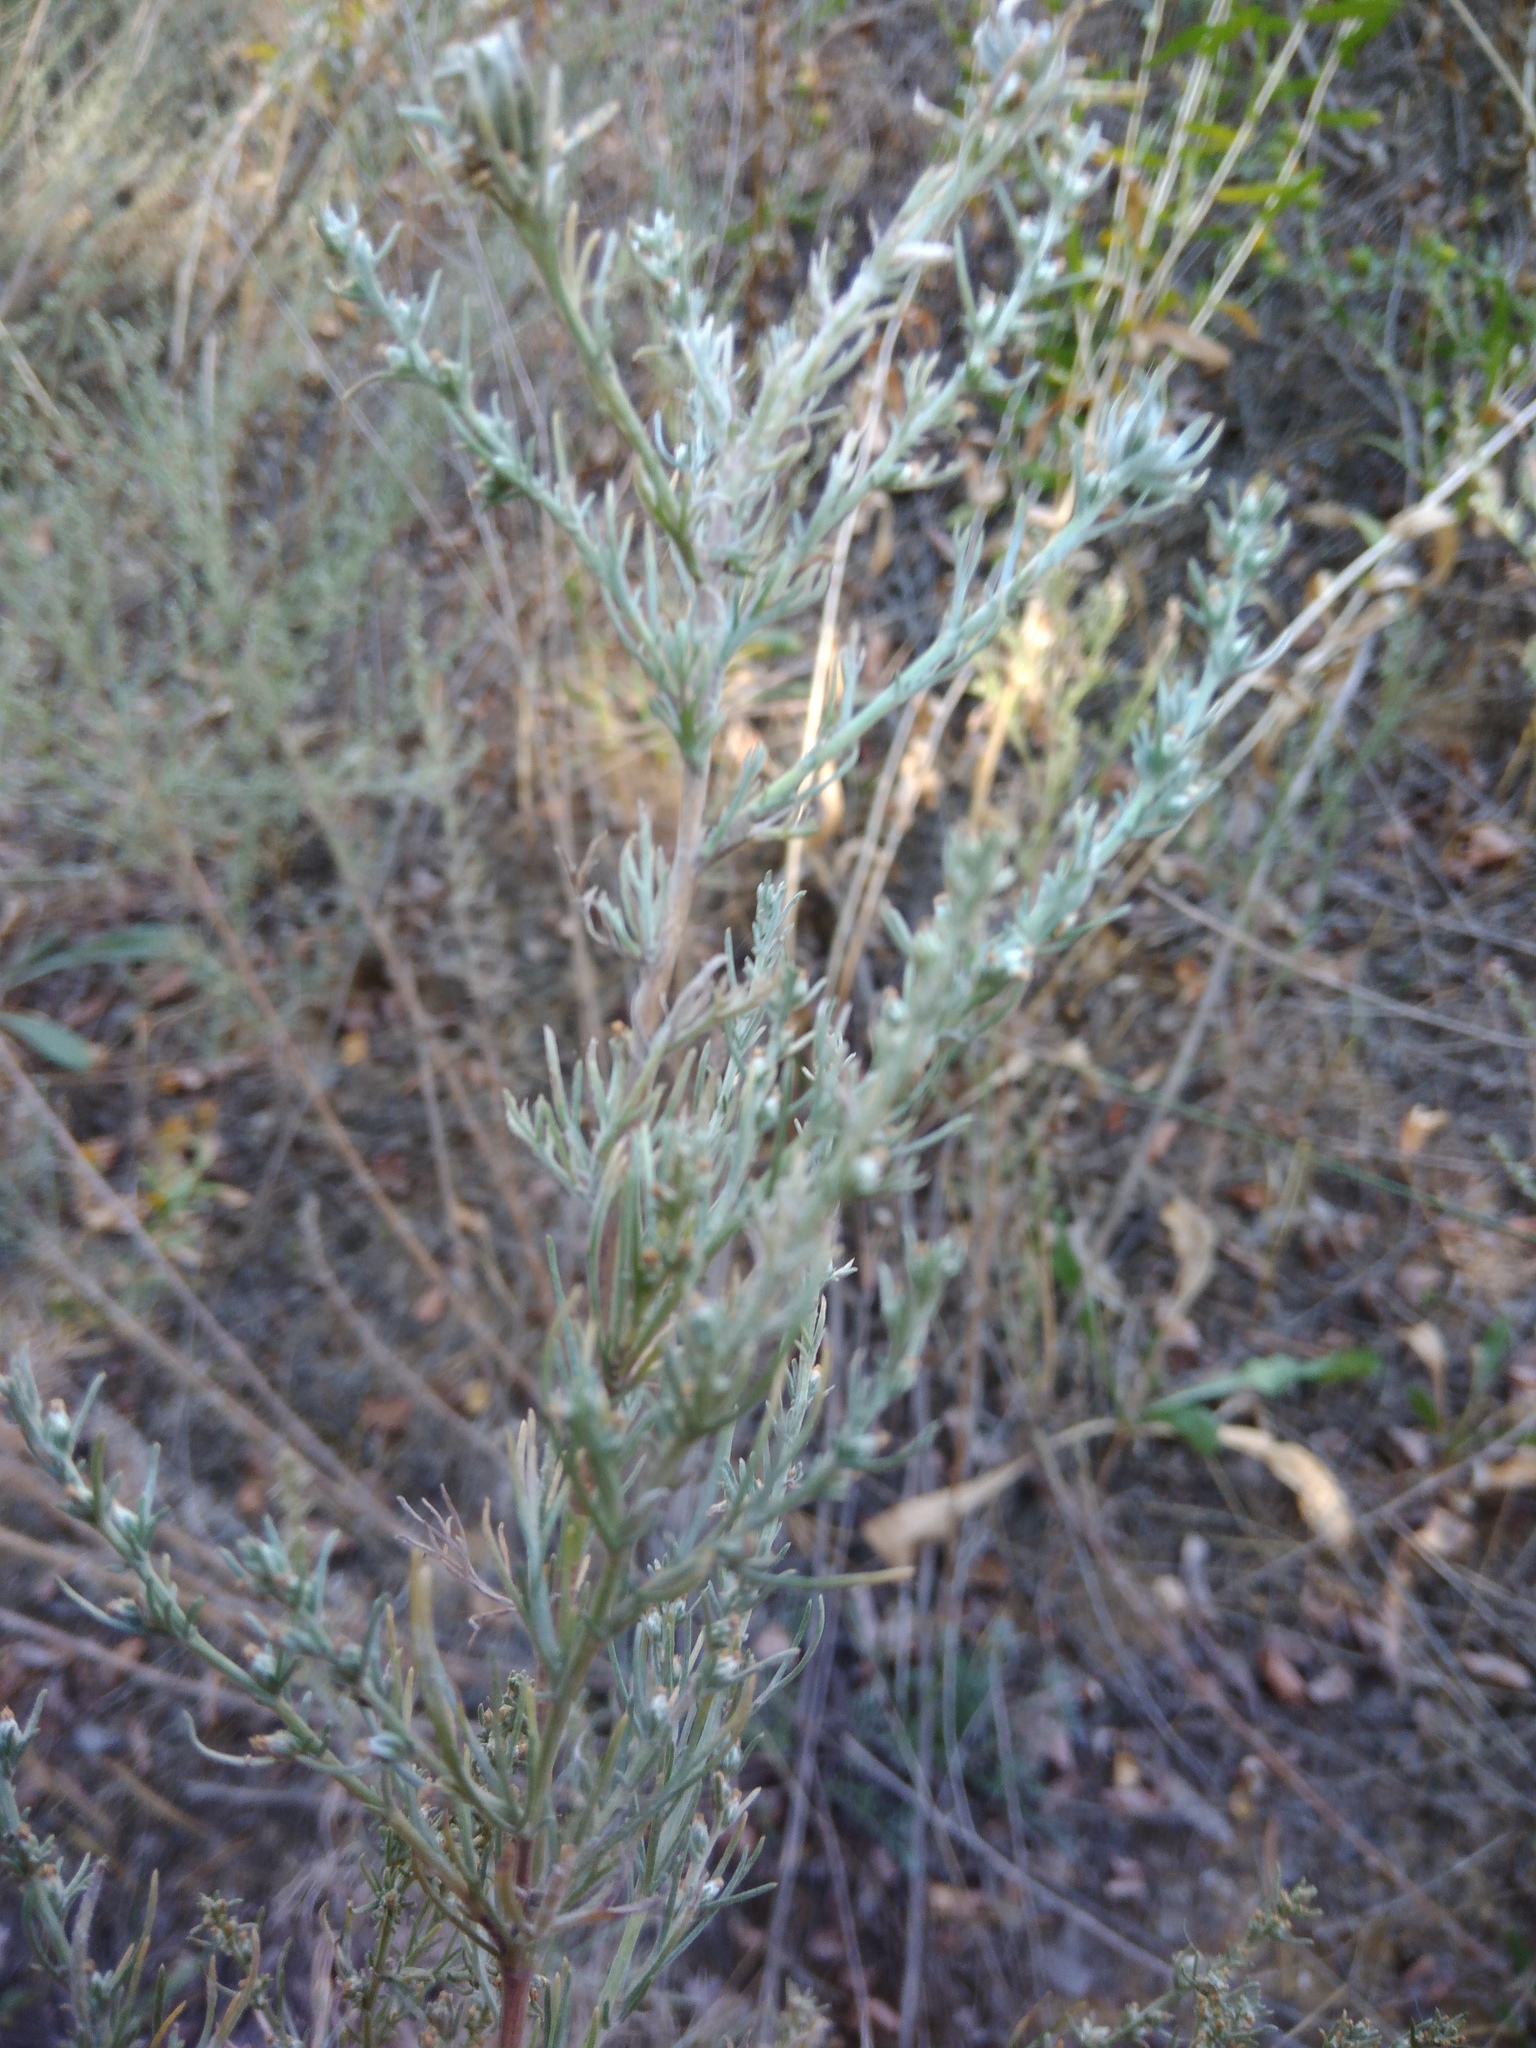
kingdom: Plantae
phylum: Tracheophyta
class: Magnoliopsida
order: Asterales
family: Asteraceae
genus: Artemisia
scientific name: Artemisia marschalliana
